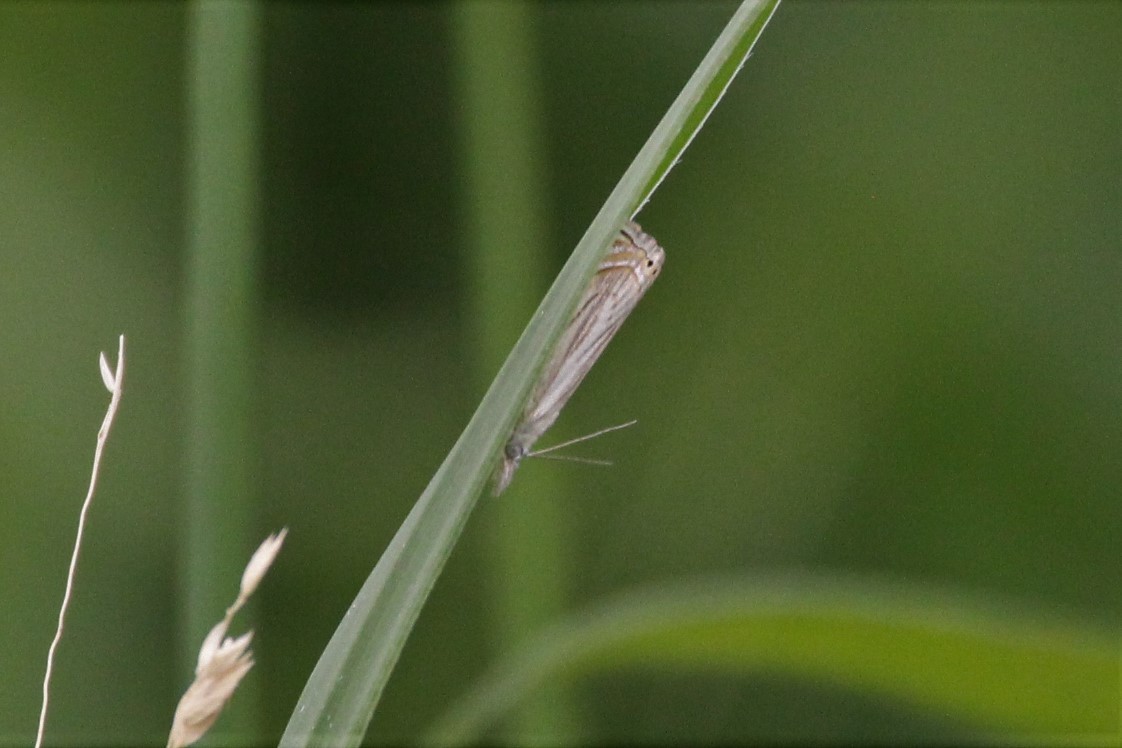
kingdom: Animalia
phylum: Arthropoda
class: Insecta
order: Lepidoptera
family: Crambidae
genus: Chrysoteuchia
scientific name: Chrysoteuchia topiarius
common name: Topiary grass-veneer
